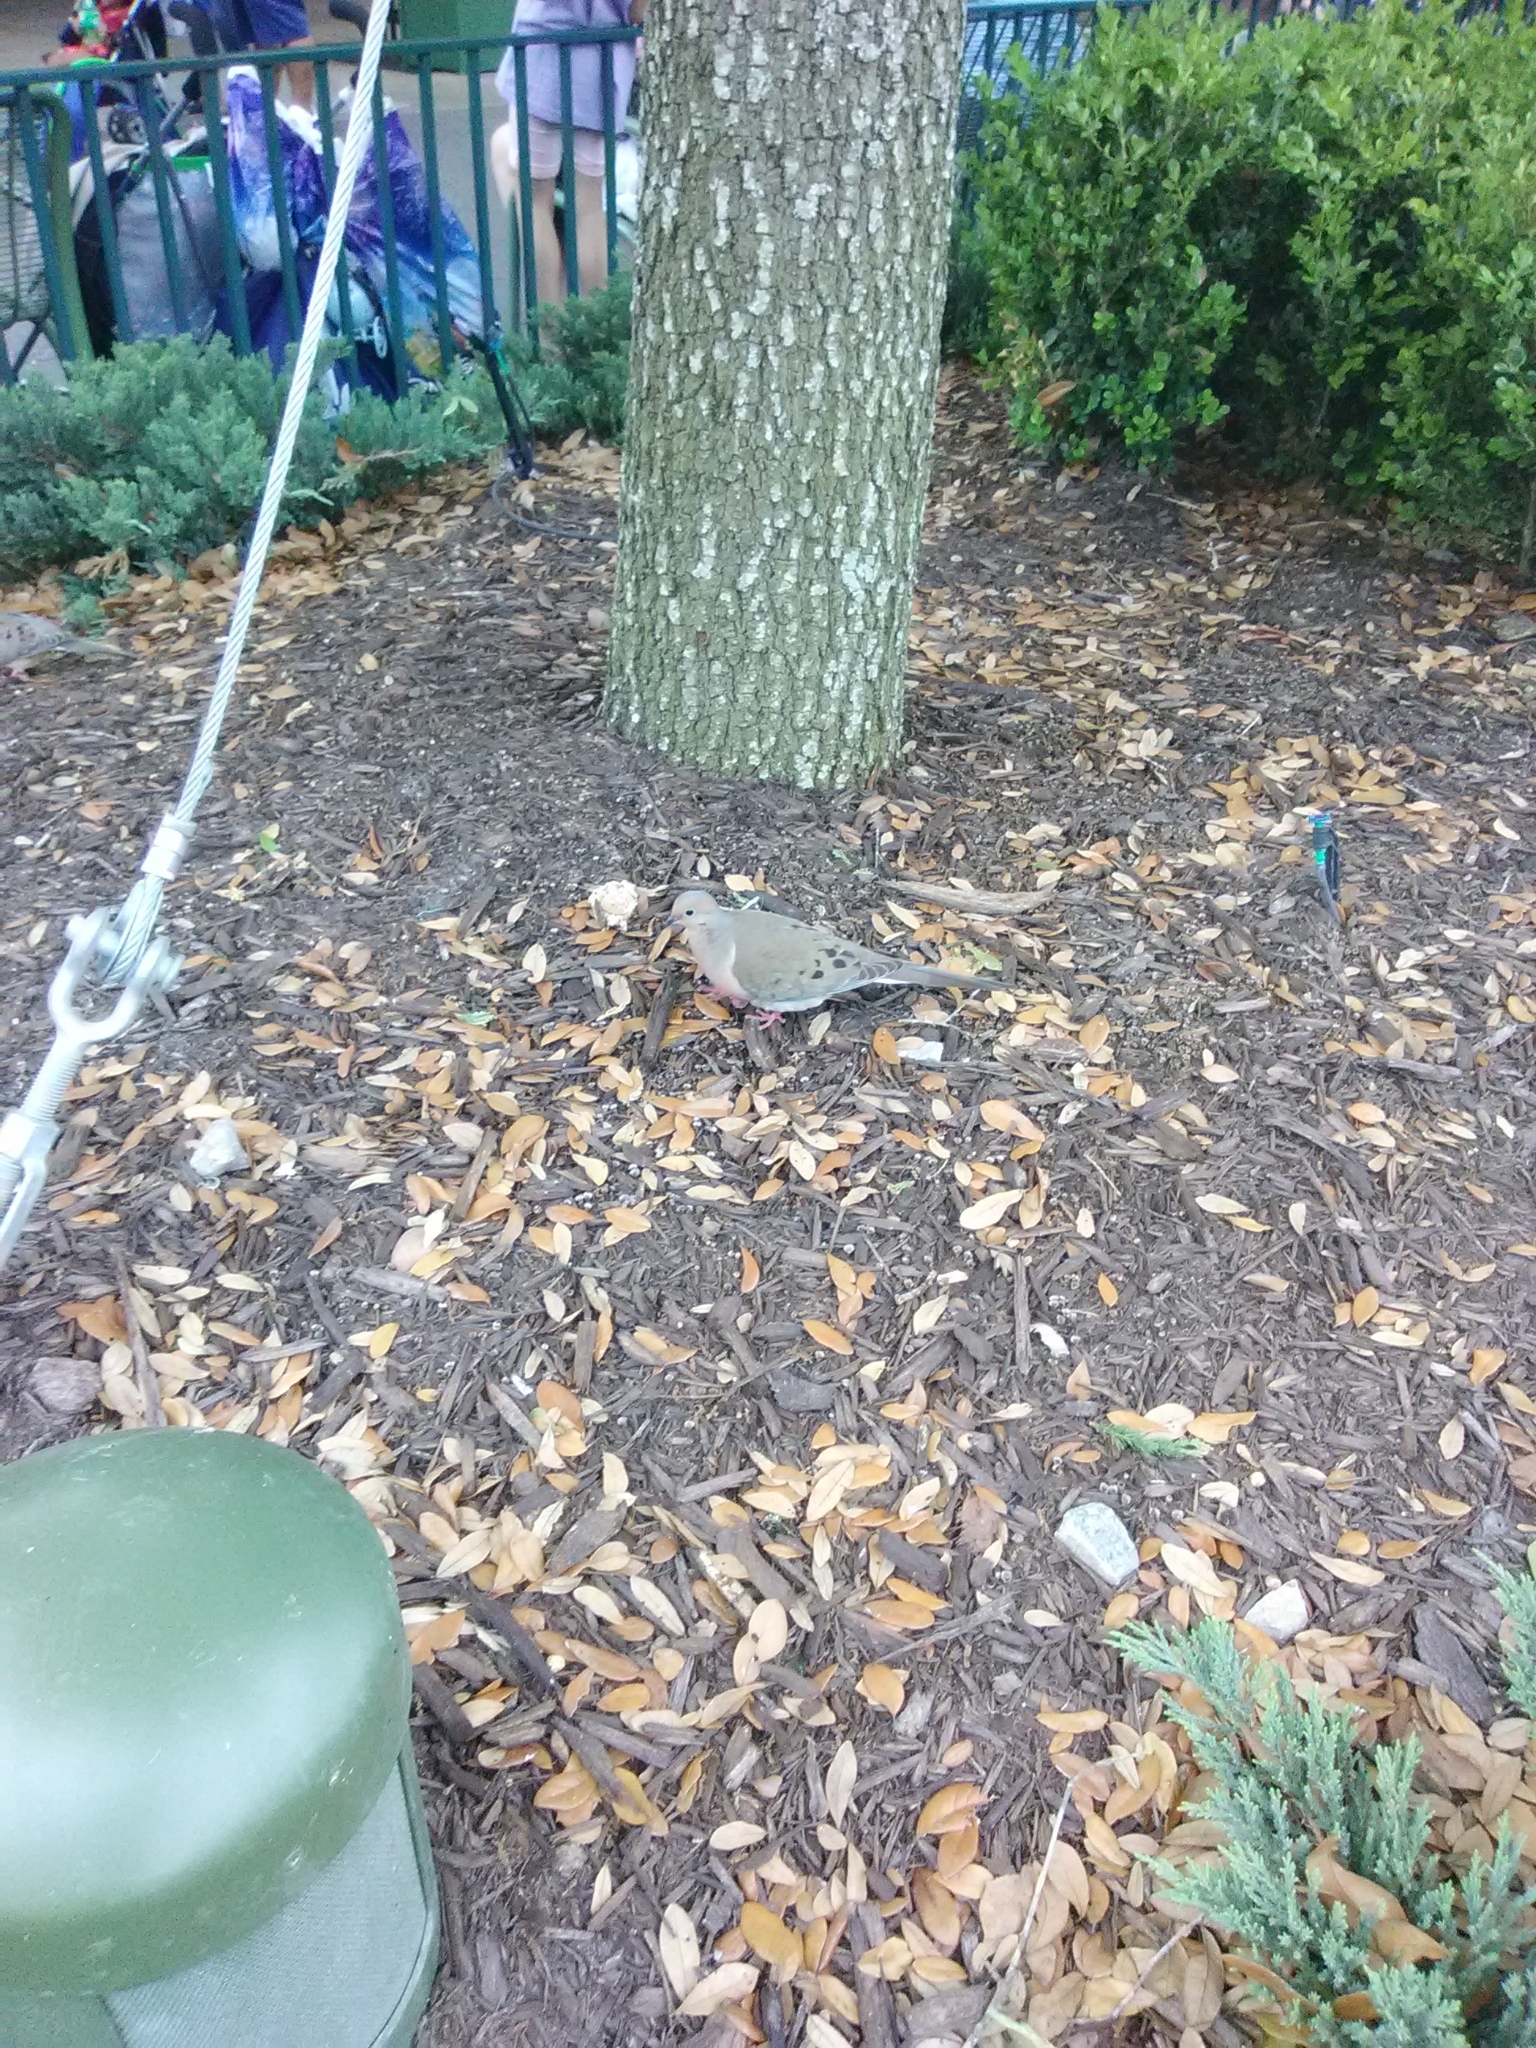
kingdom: Animalia
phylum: Chordata
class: Aves
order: Columbiformes
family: Columbidae
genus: Zenaida
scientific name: Zenaida macroura
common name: Mourning dove
